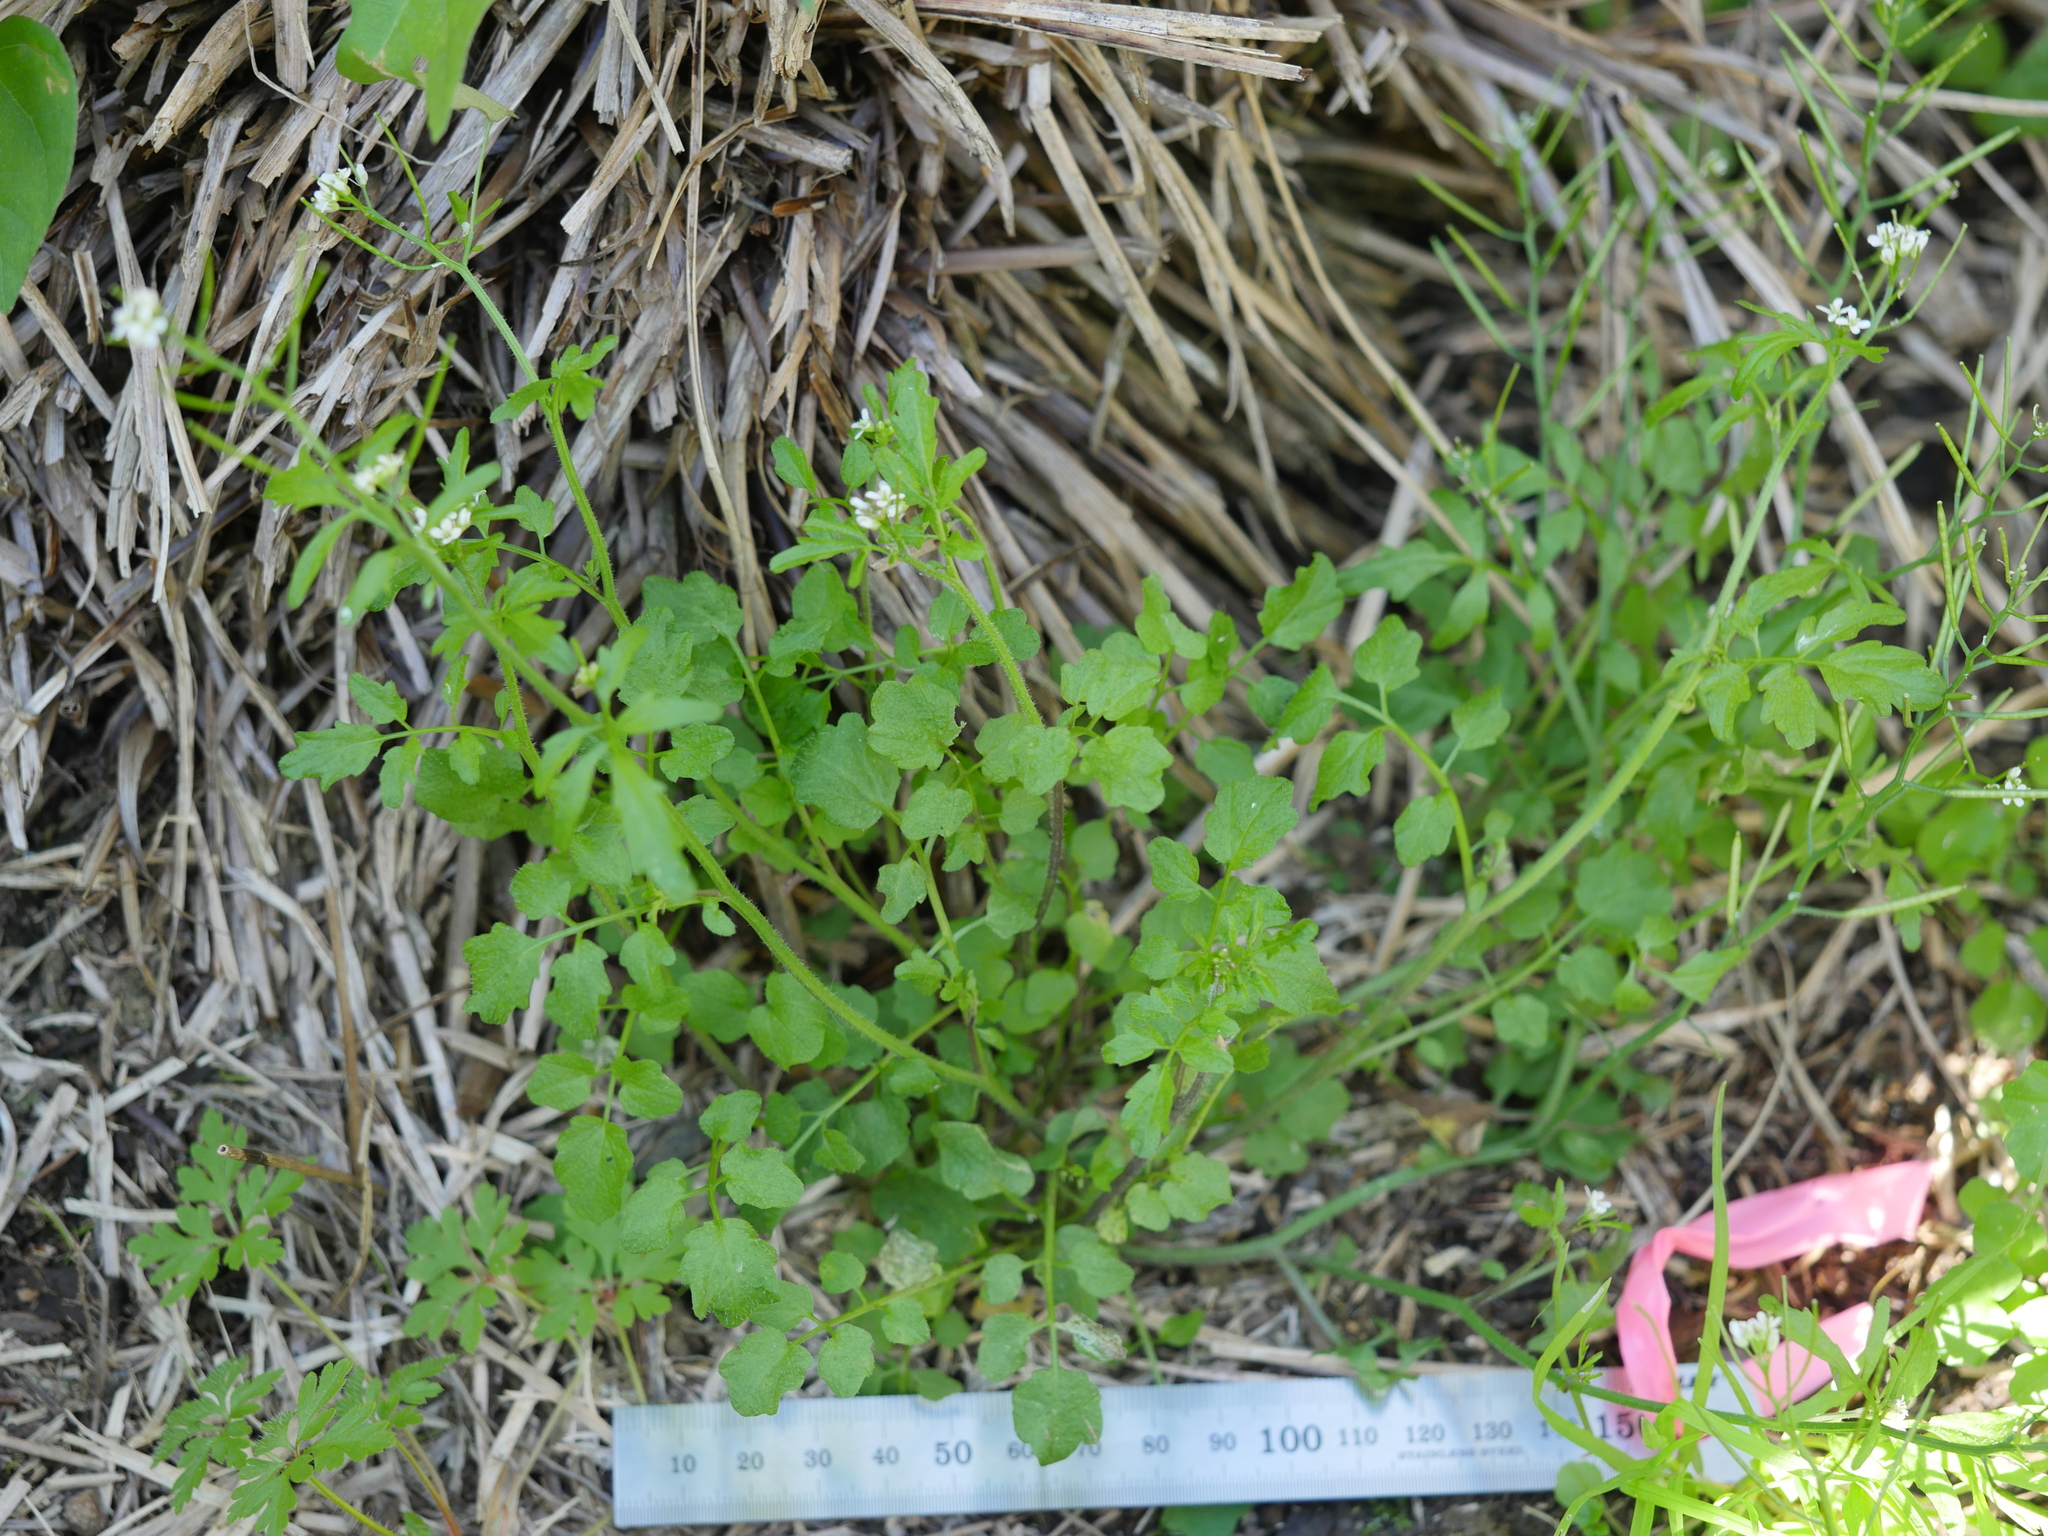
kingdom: Plantae
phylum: Tracheophyta
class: Magnoliopsida
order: Brassicales
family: Brassicaceae
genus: Cardamine
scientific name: Cardamine flexuosa
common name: Woodland bittercress
